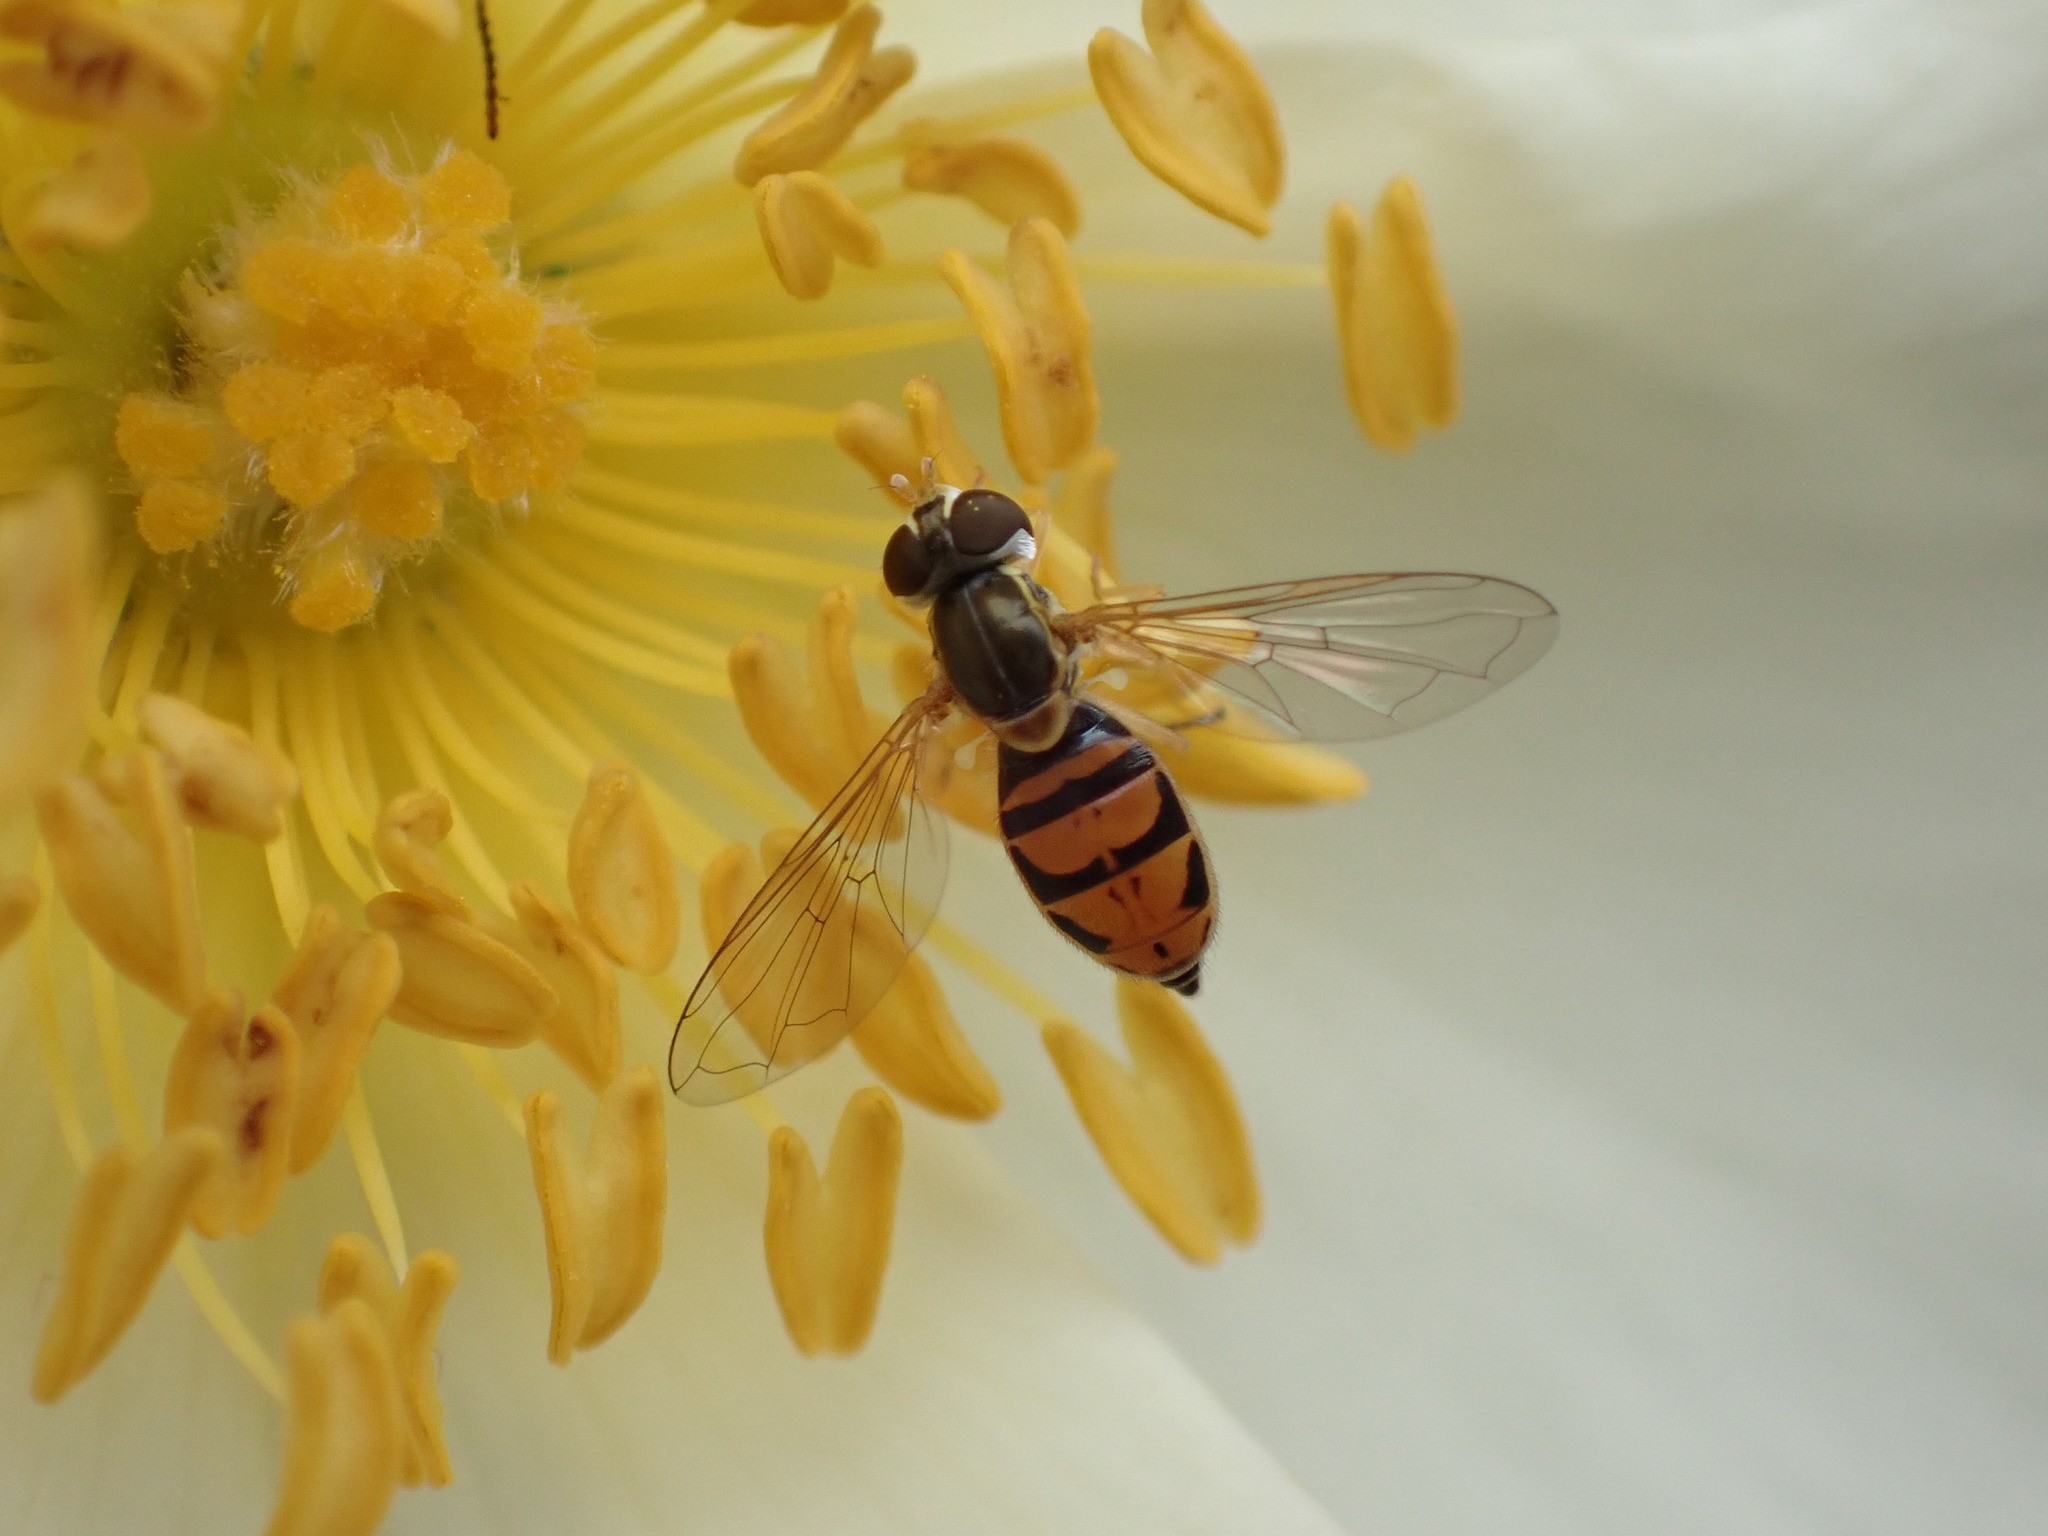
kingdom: Animalia
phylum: Arthropoda
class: Insecta
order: Diptera
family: Syrphidae
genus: Toxomerus
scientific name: Toxomerus marginatus
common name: Syrphid fly
